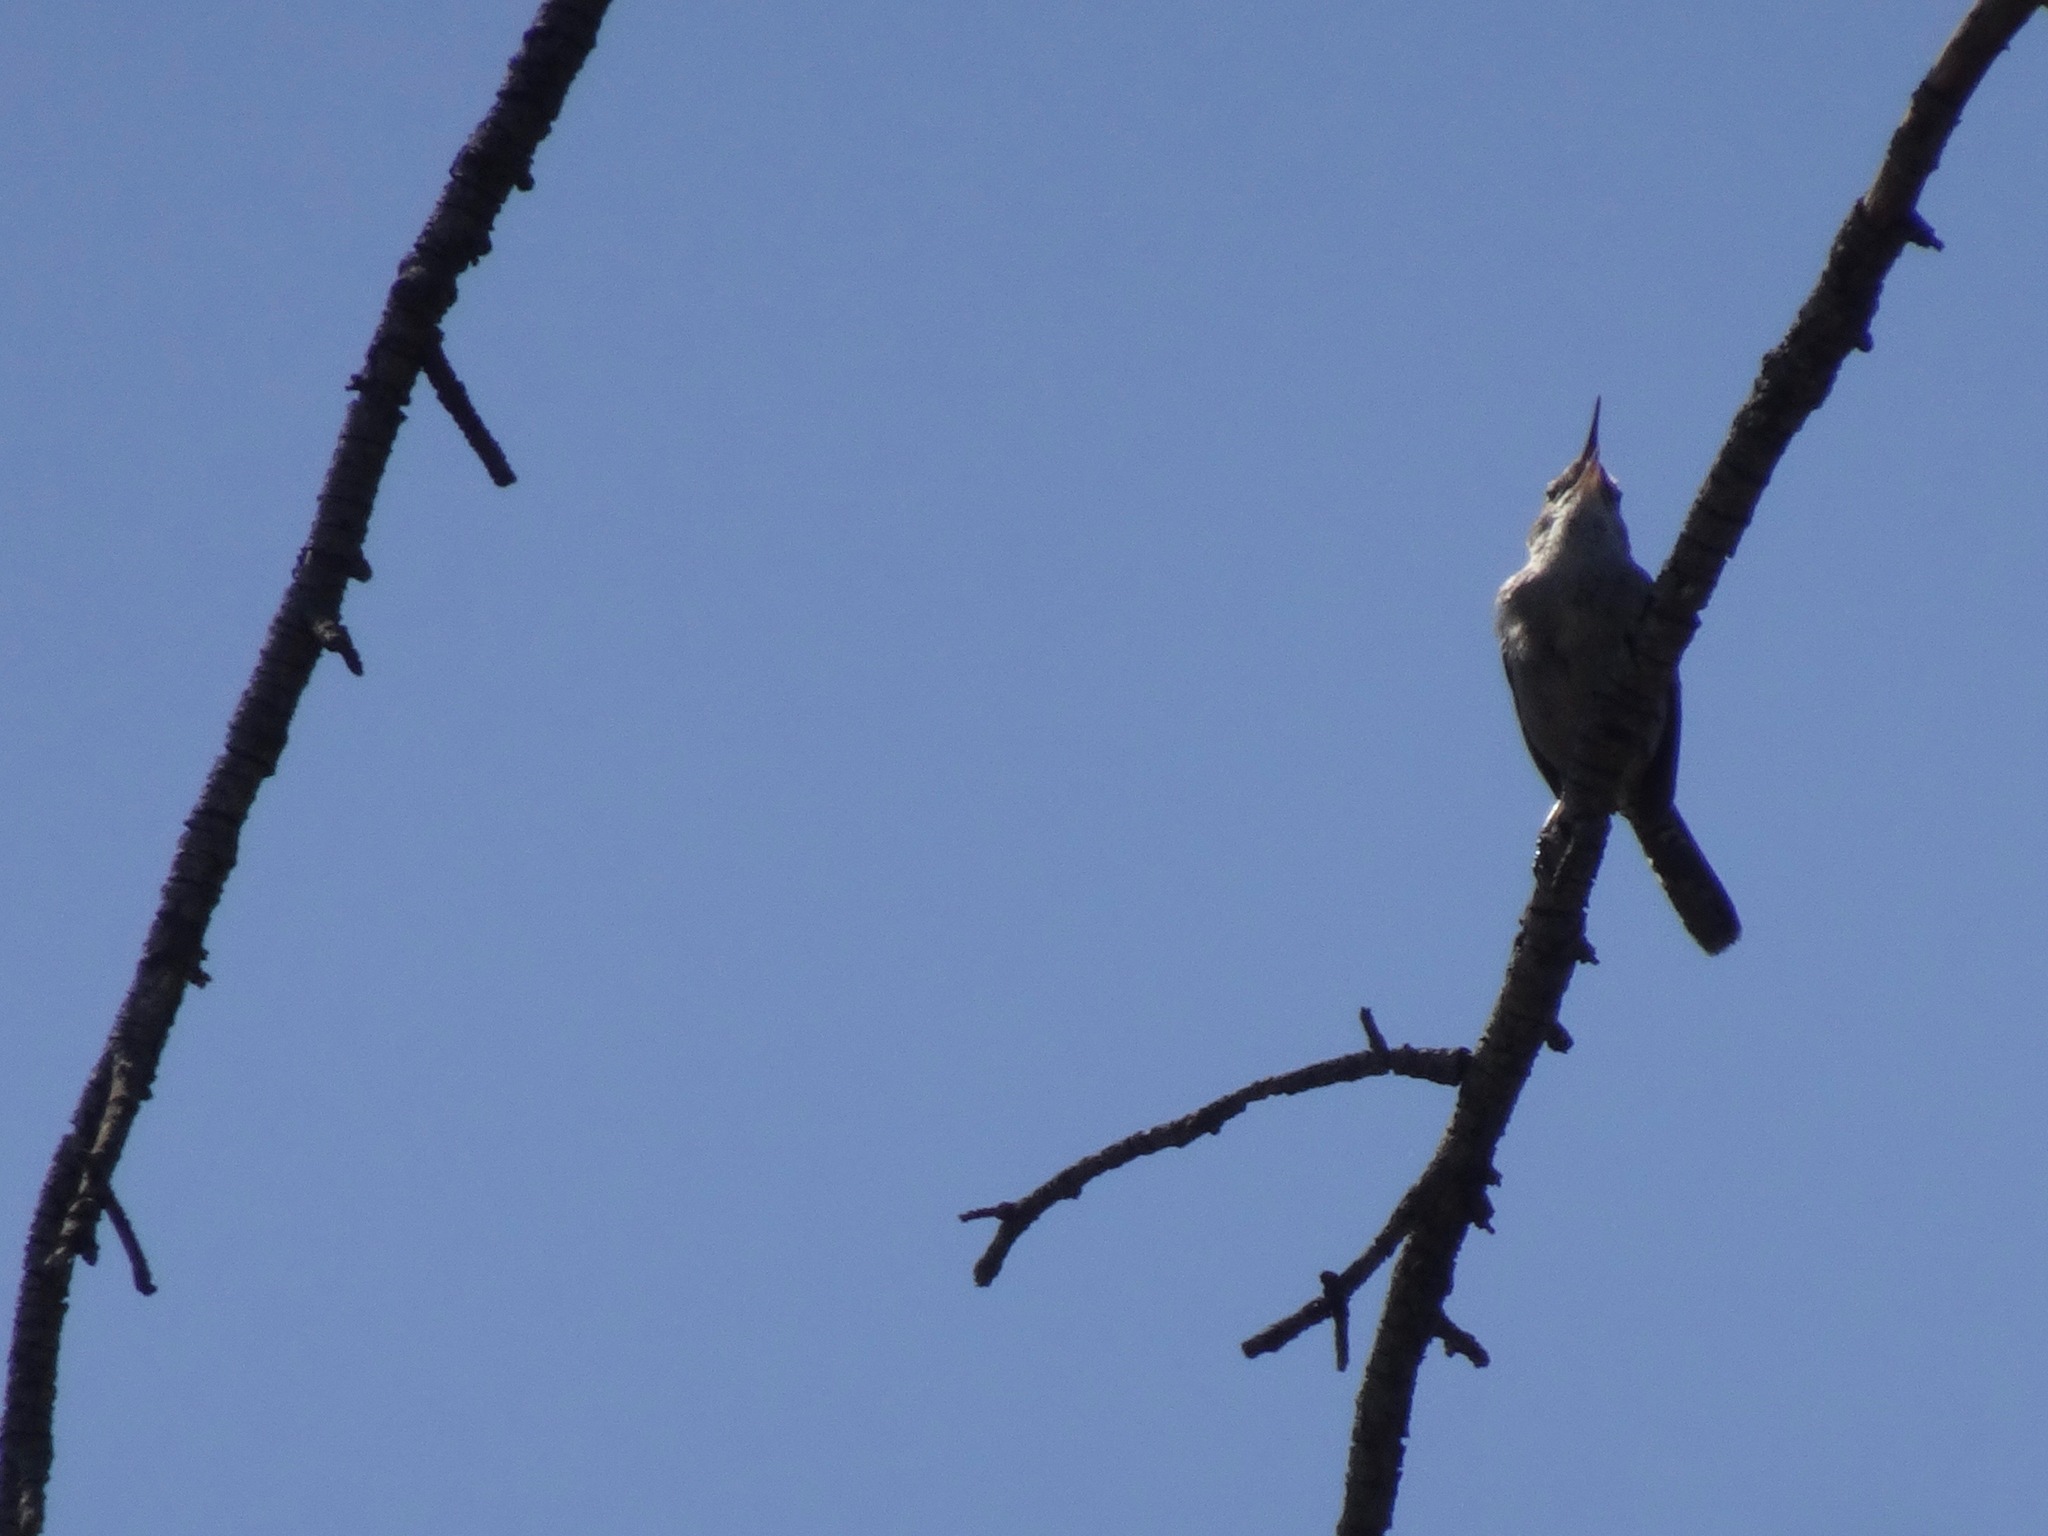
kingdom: Animalia
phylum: Chordata
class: Aves
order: Passeriformes
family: Troglodytidae
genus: Thryomanes
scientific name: Thryomanes bewickii
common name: Bewick's wren
